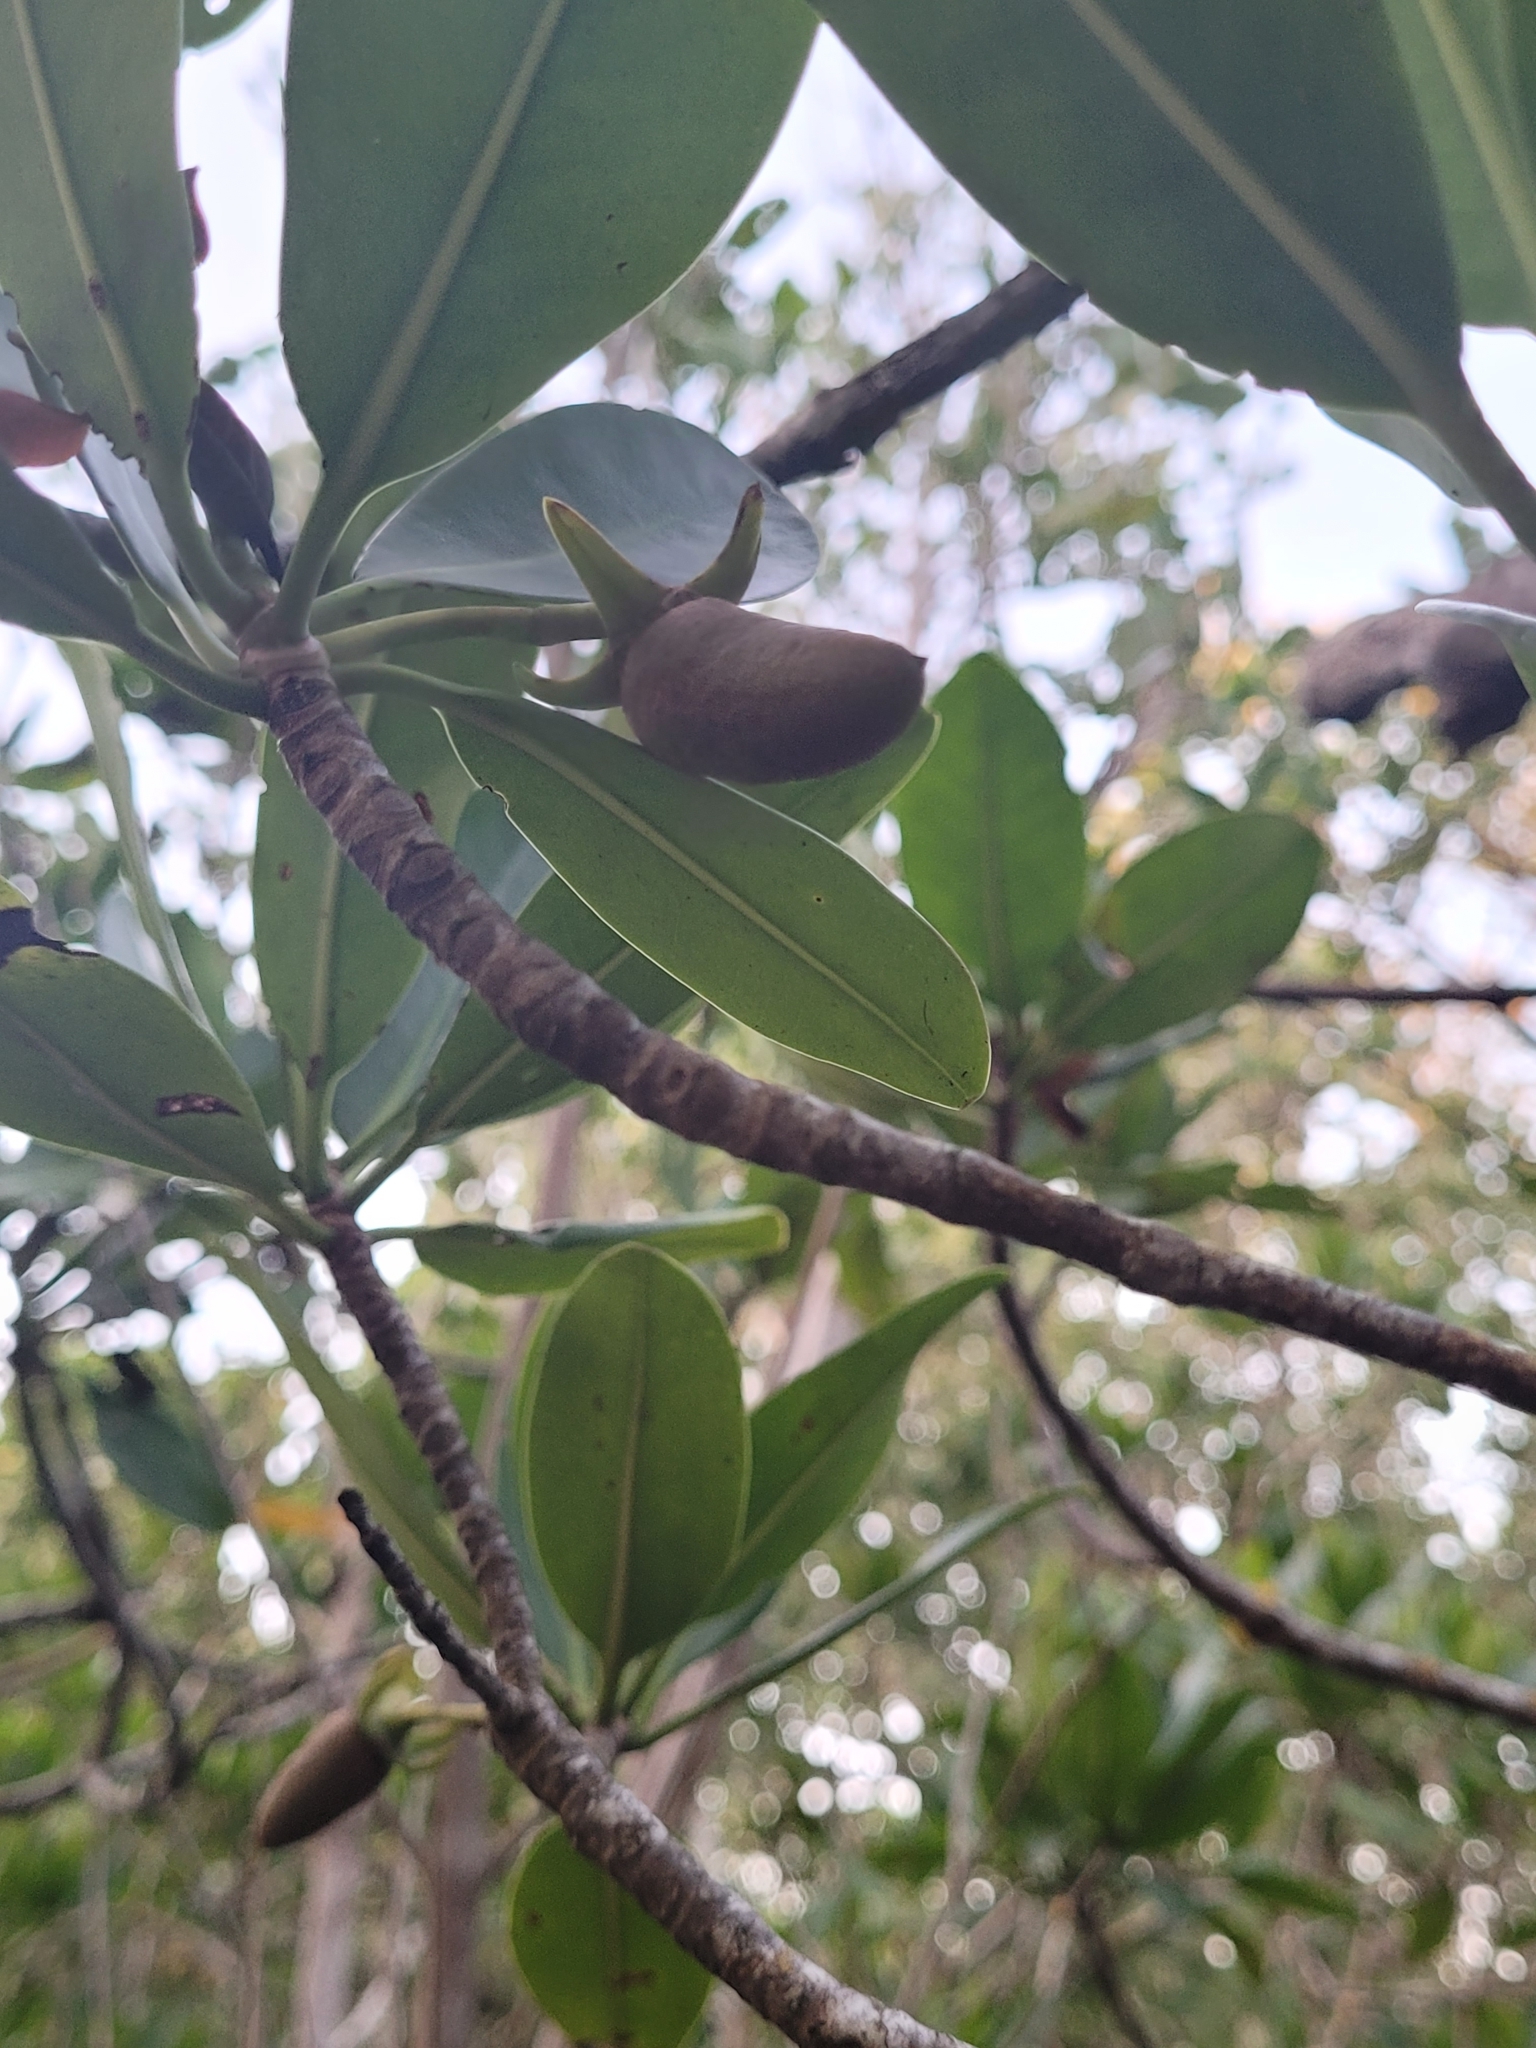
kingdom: Plantae
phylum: Tracheophyta
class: Magnoliopsida
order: Malpighiales
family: Rhizophoraceae
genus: Rhizophora
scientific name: Rhizophora mangle
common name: Red mangrove
